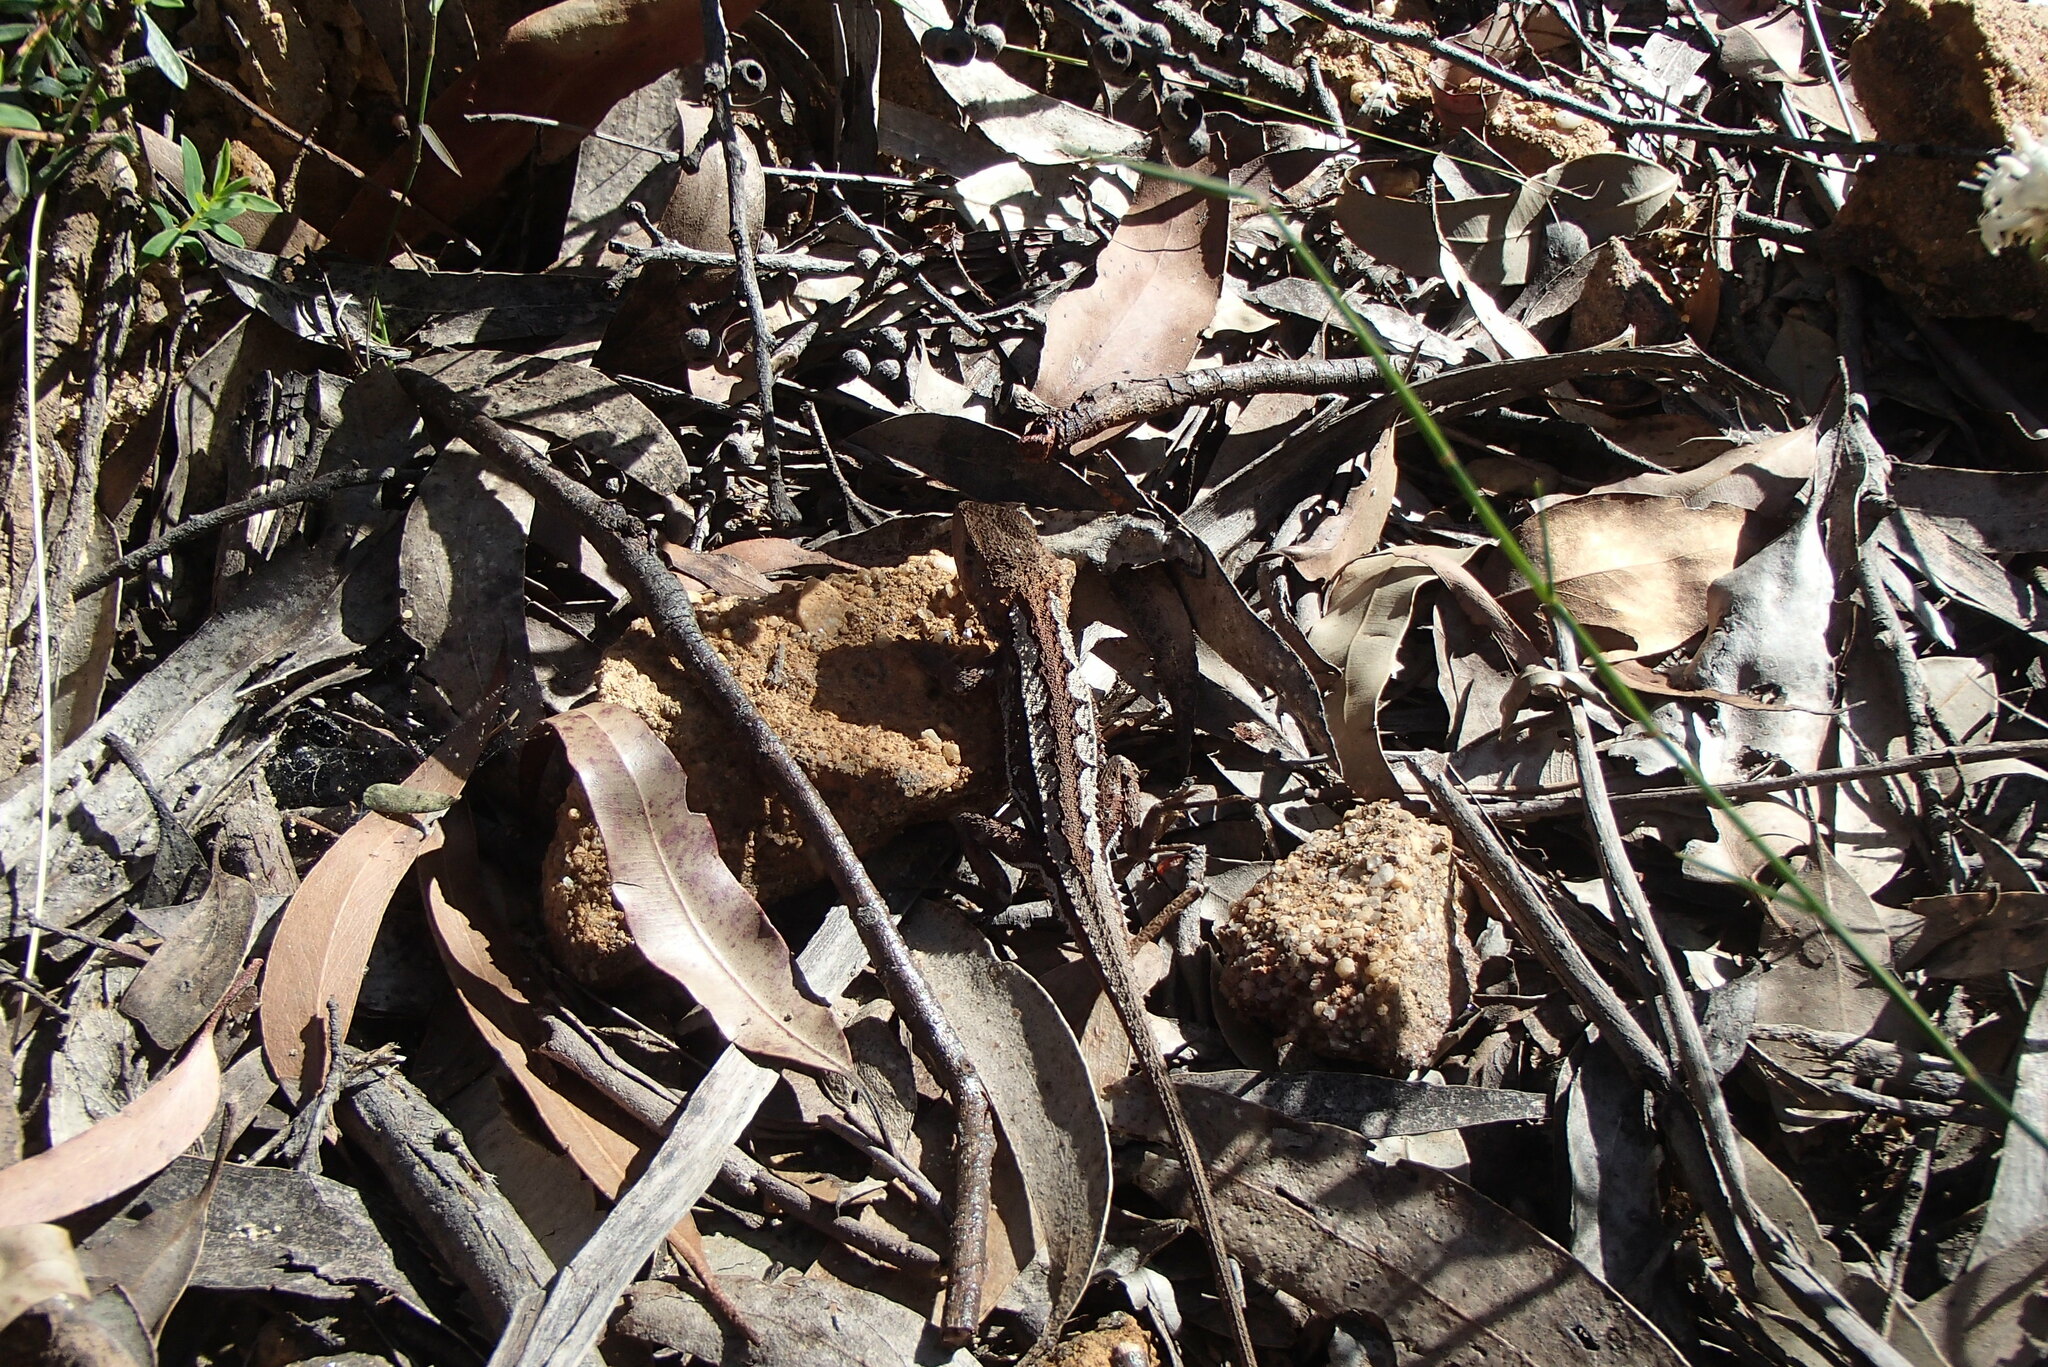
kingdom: Animalia
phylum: Chordata
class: Squamata
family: Agamidae
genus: Rankinia
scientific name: Rankinia diemensis
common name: Mountain dragon
